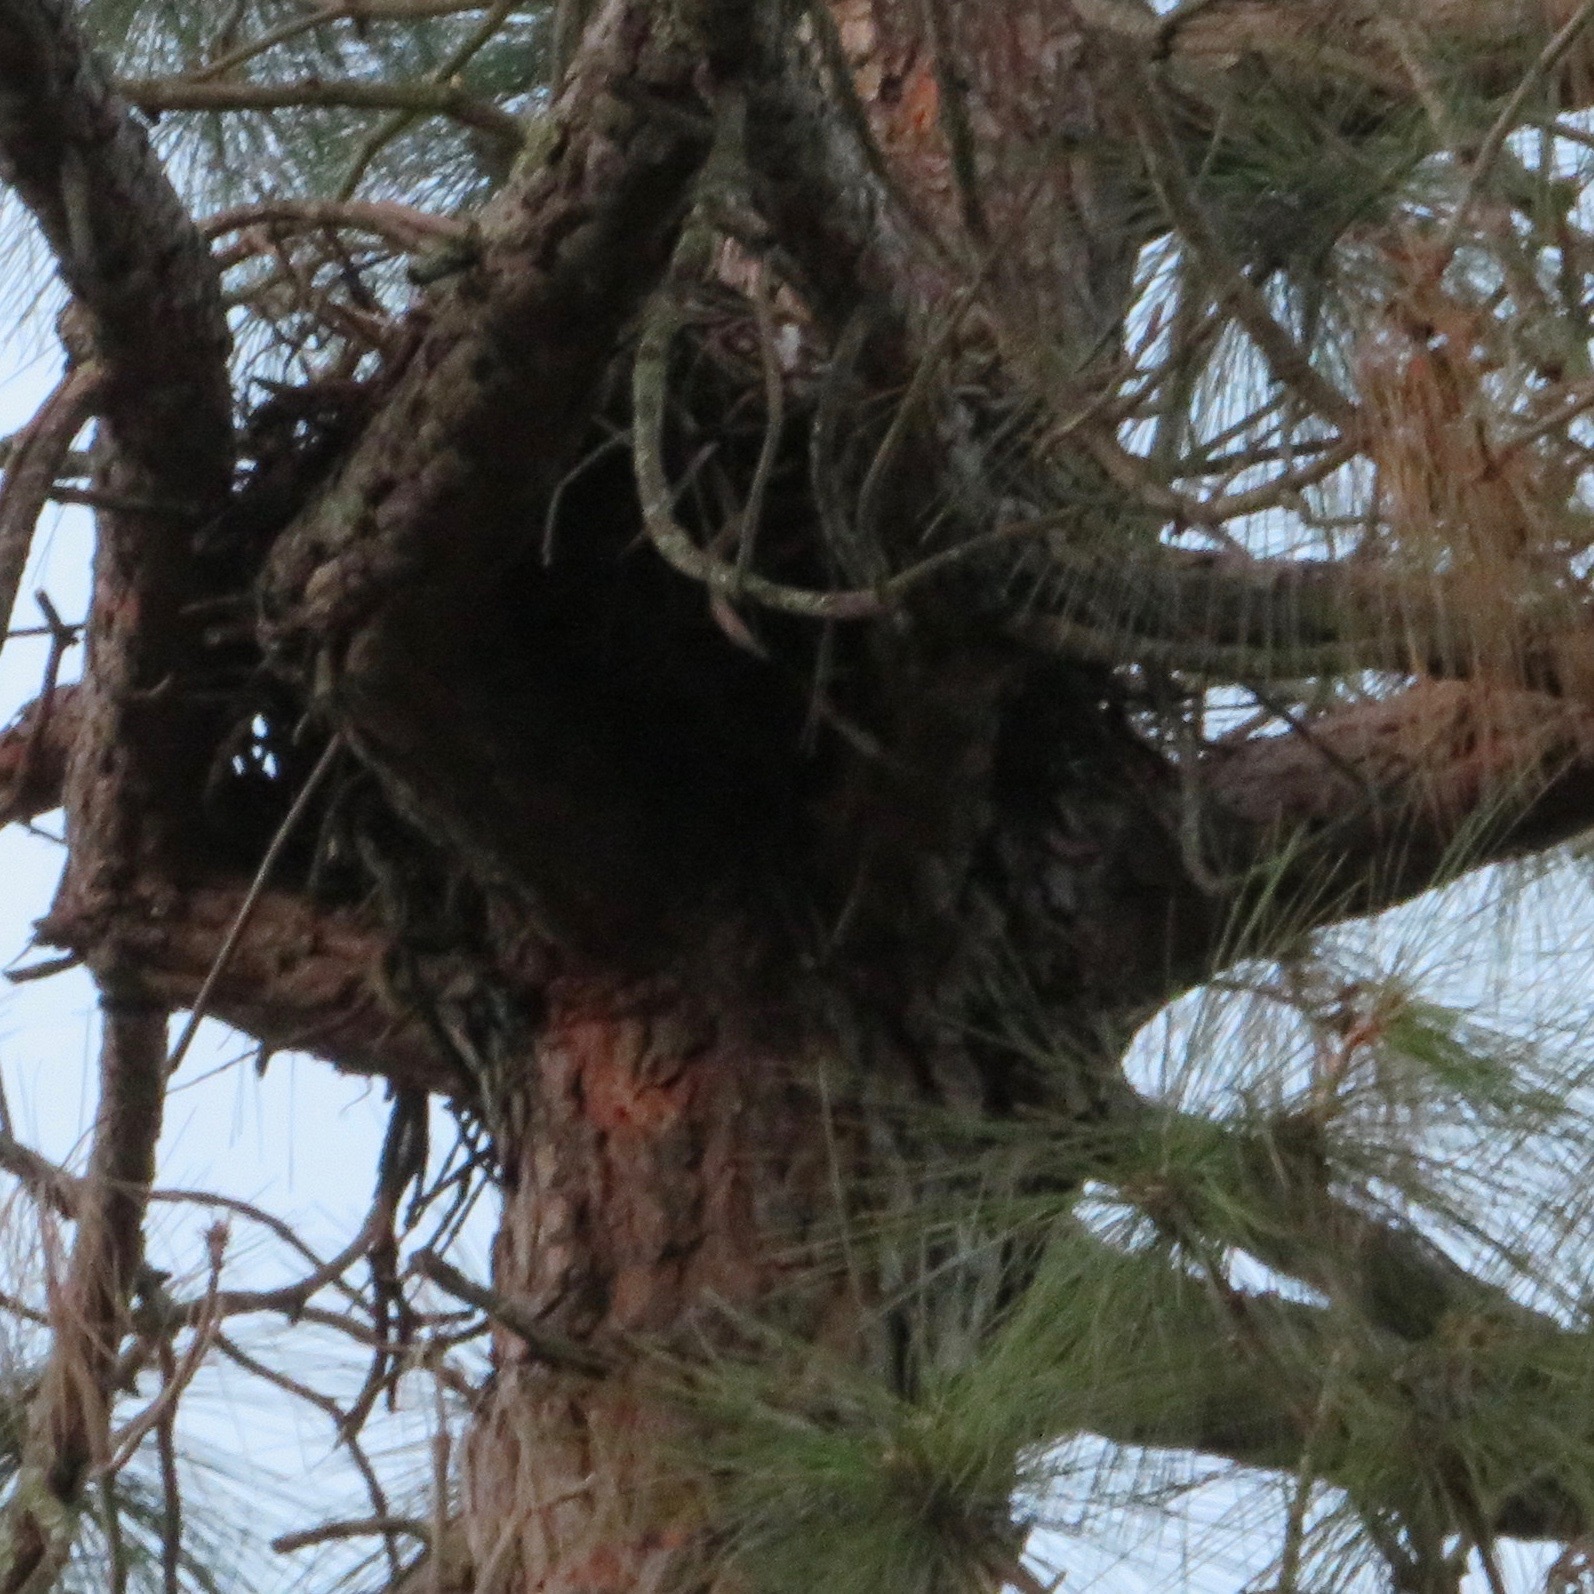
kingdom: Animalia
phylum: Chordata
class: Aves
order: Passeriformes
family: Corvidae
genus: Corvus
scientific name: Corvus corax
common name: Common raven
